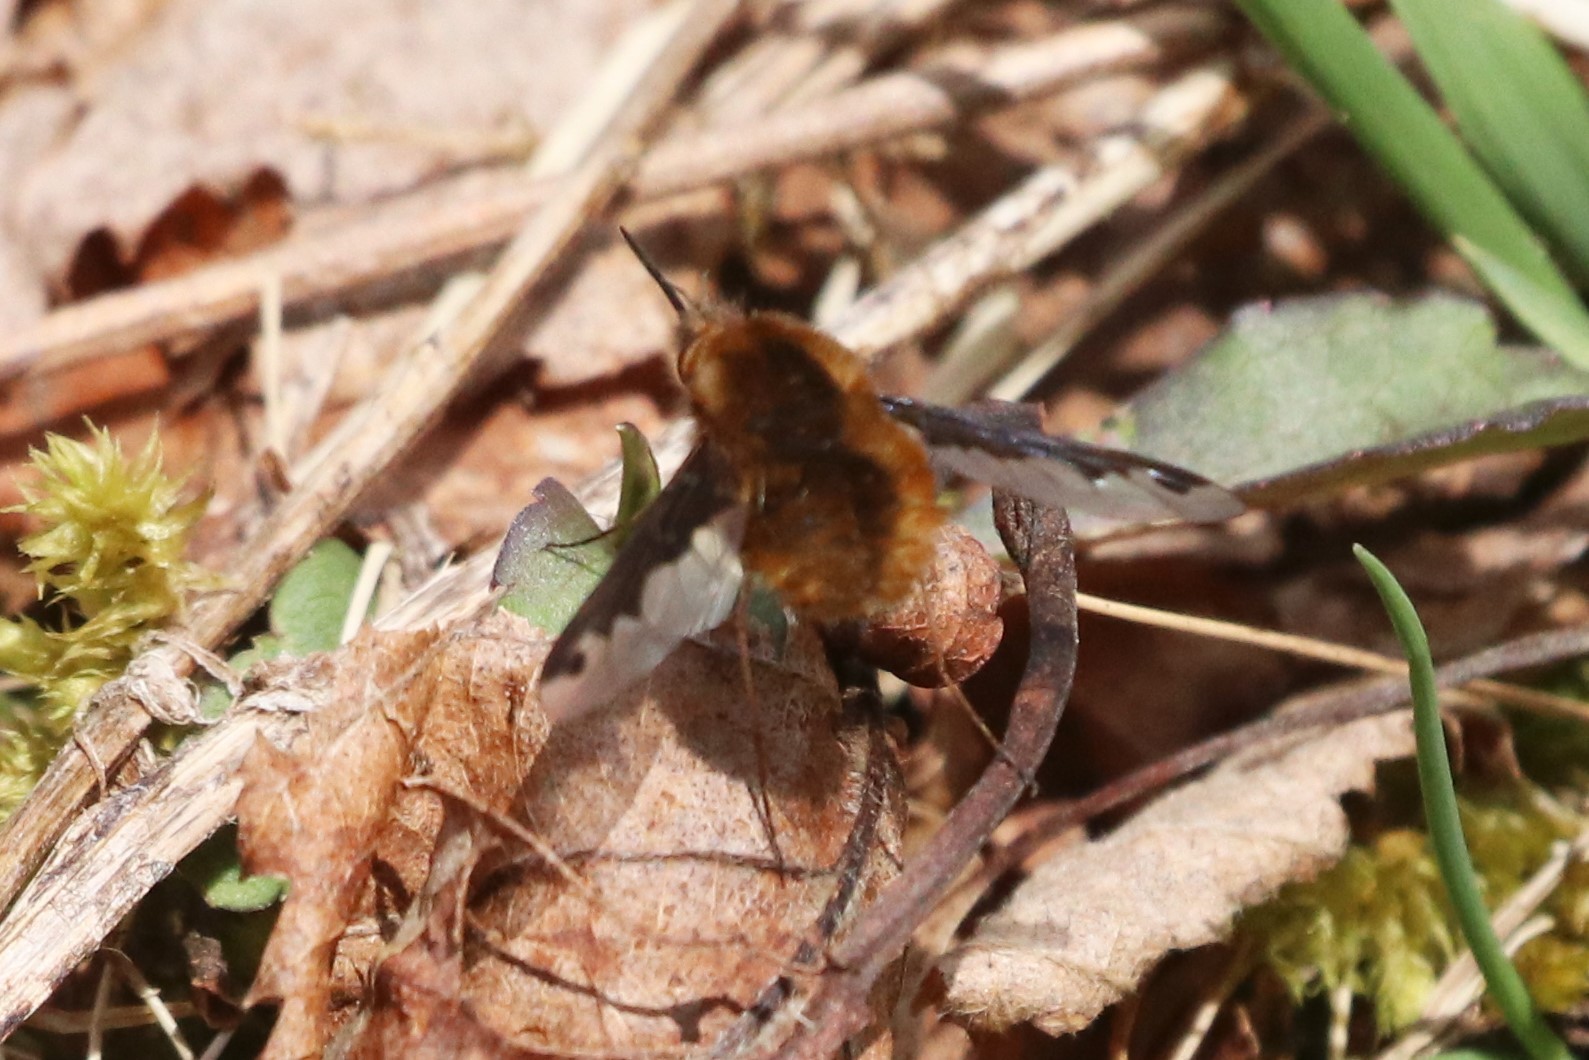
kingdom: Animalia
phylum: Arthropoda
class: Insecta
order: Diptera
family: Bombyliidae
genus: Bombylius
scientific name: Bombylius major
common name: Bee fly
